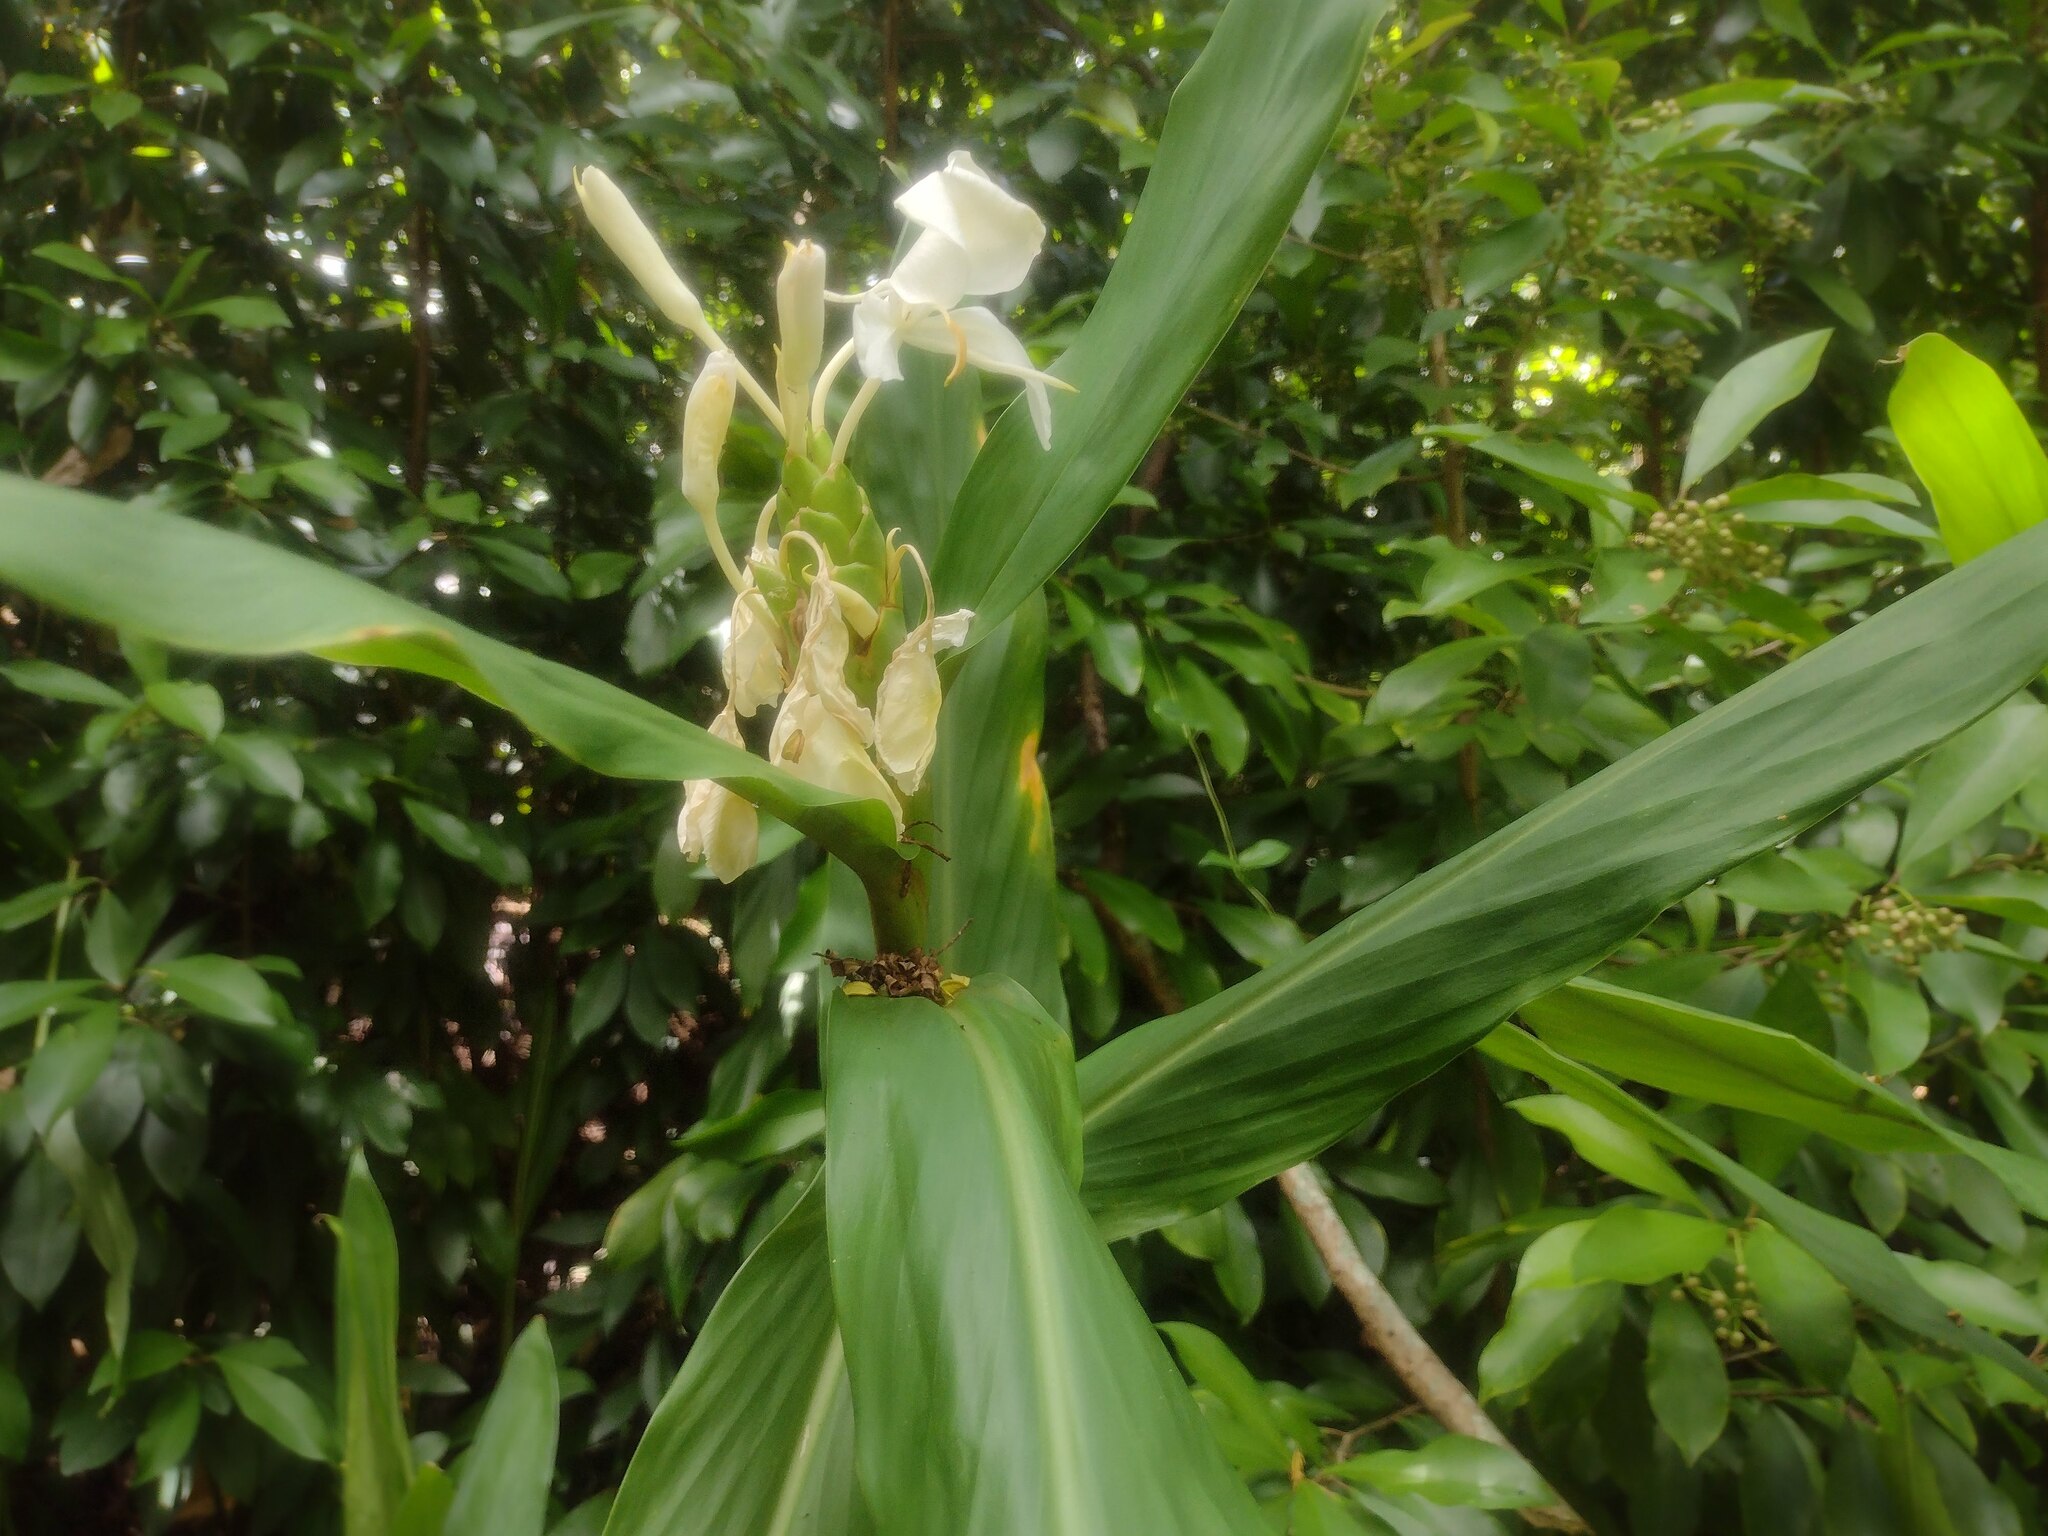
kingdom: Plantae
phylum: Tracheophyta
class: Liliopsida
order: Zingiberales
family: Zingiberaceae
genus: Hedychium
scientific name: Hedychium flavescens
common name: Yellow ginger
